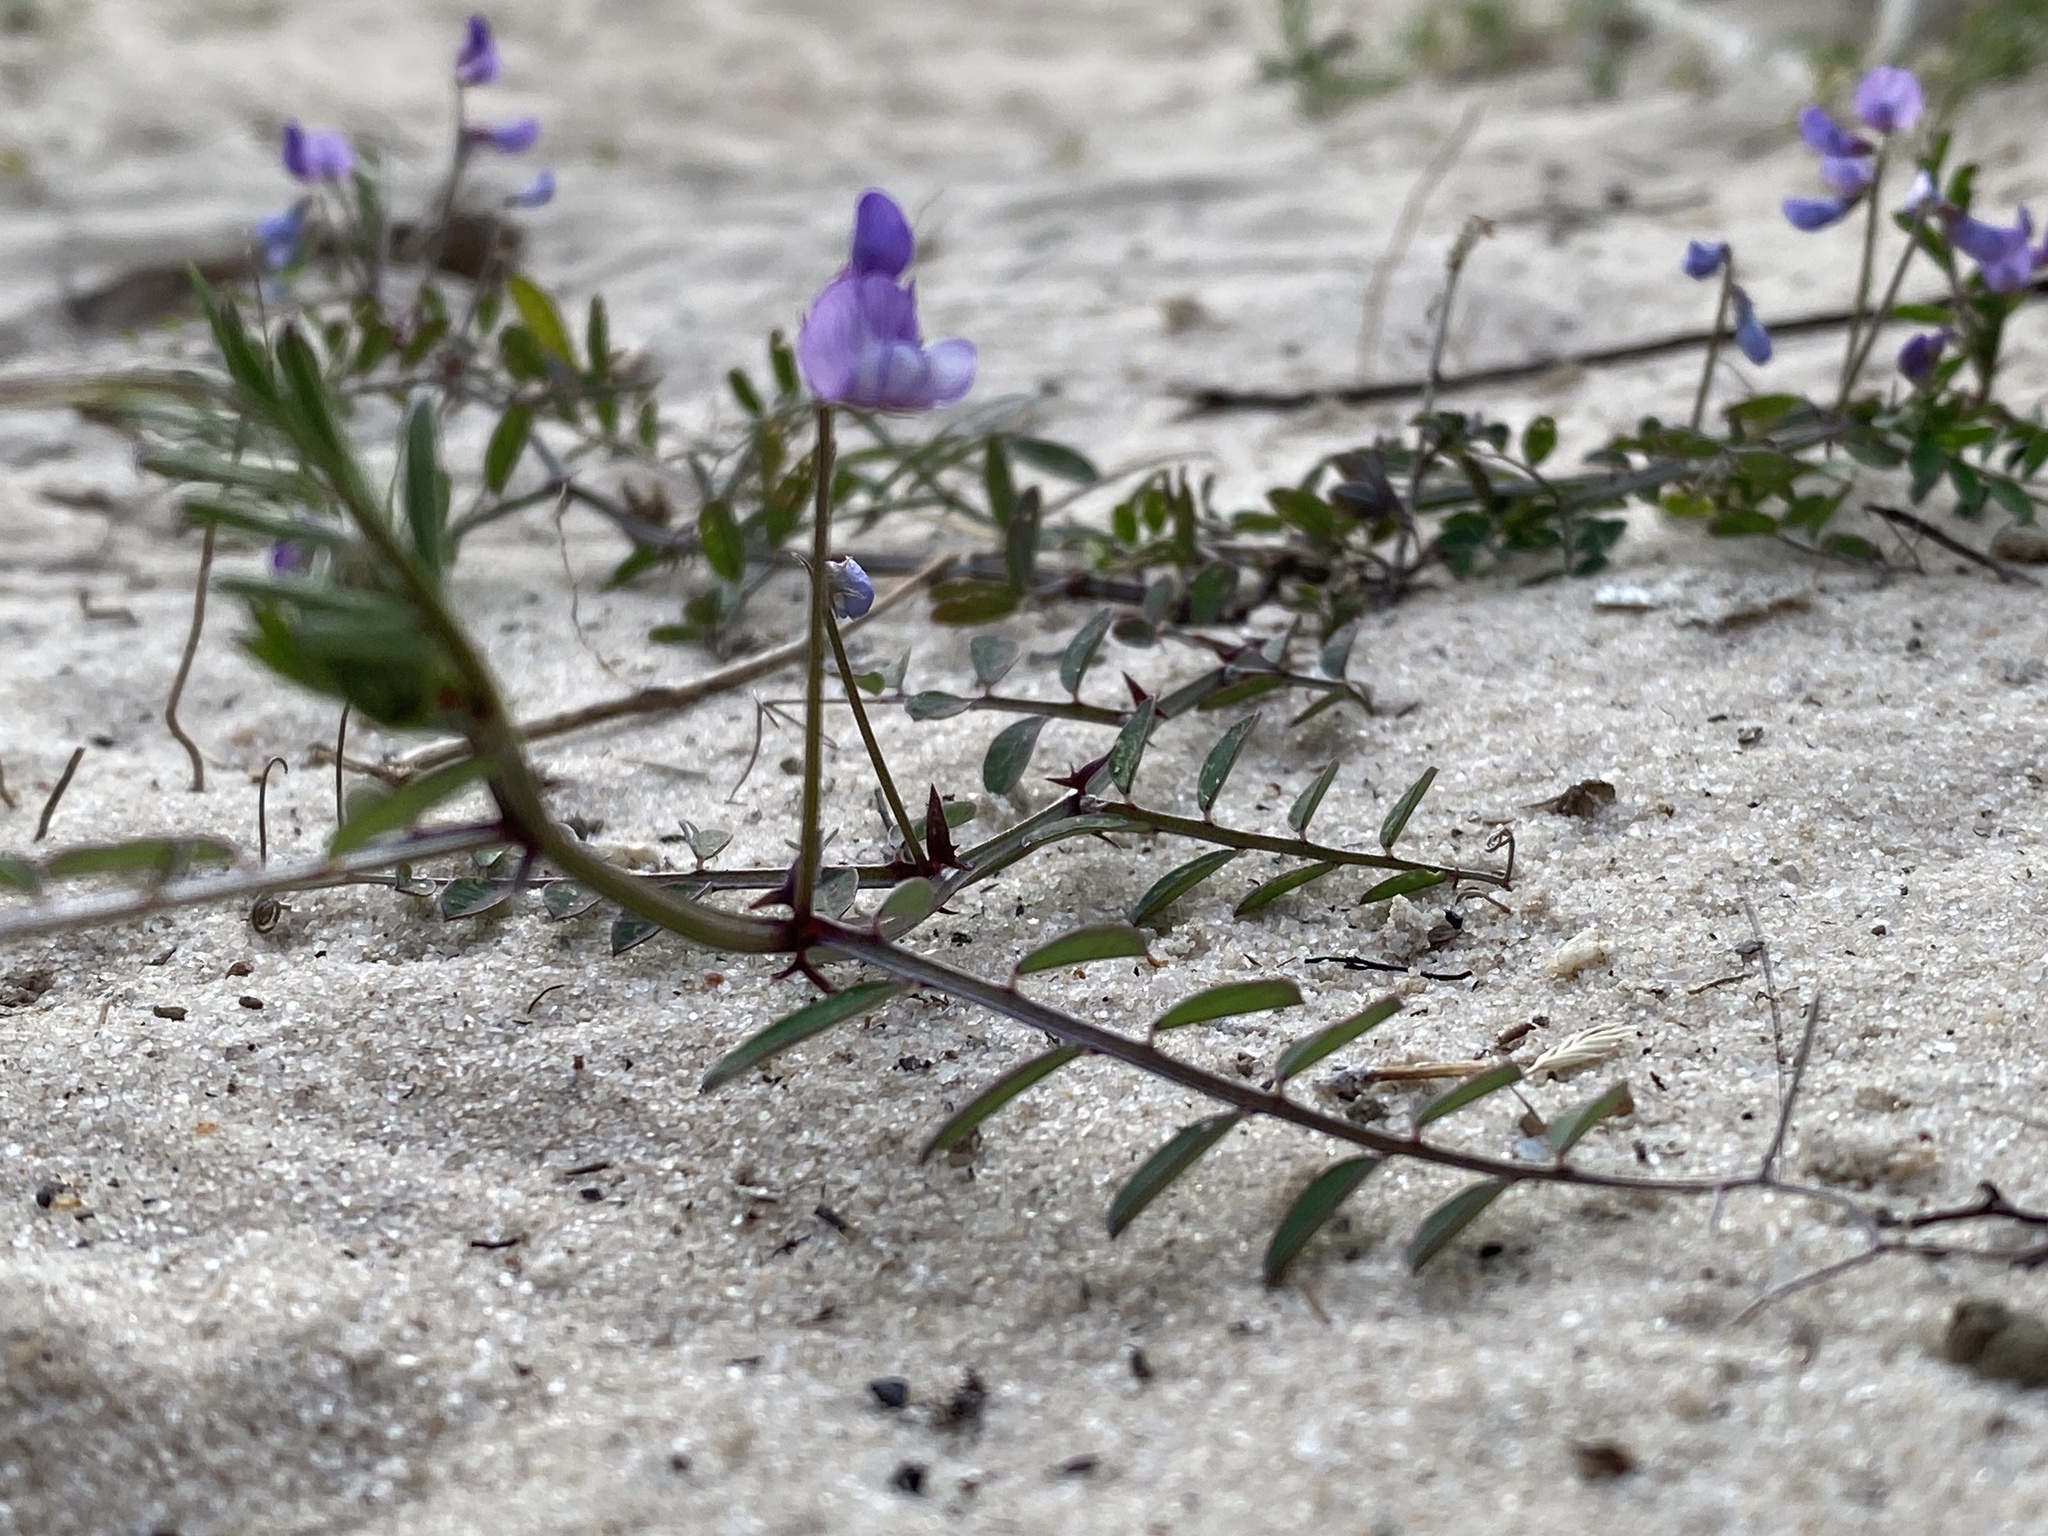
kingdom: Plantae
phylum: Tracheophyta
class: Magnoliopsida
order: Fabales
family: Fabaceae
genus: Vicia
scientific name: Vicia ludoviciana
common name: Louisiana vetch
